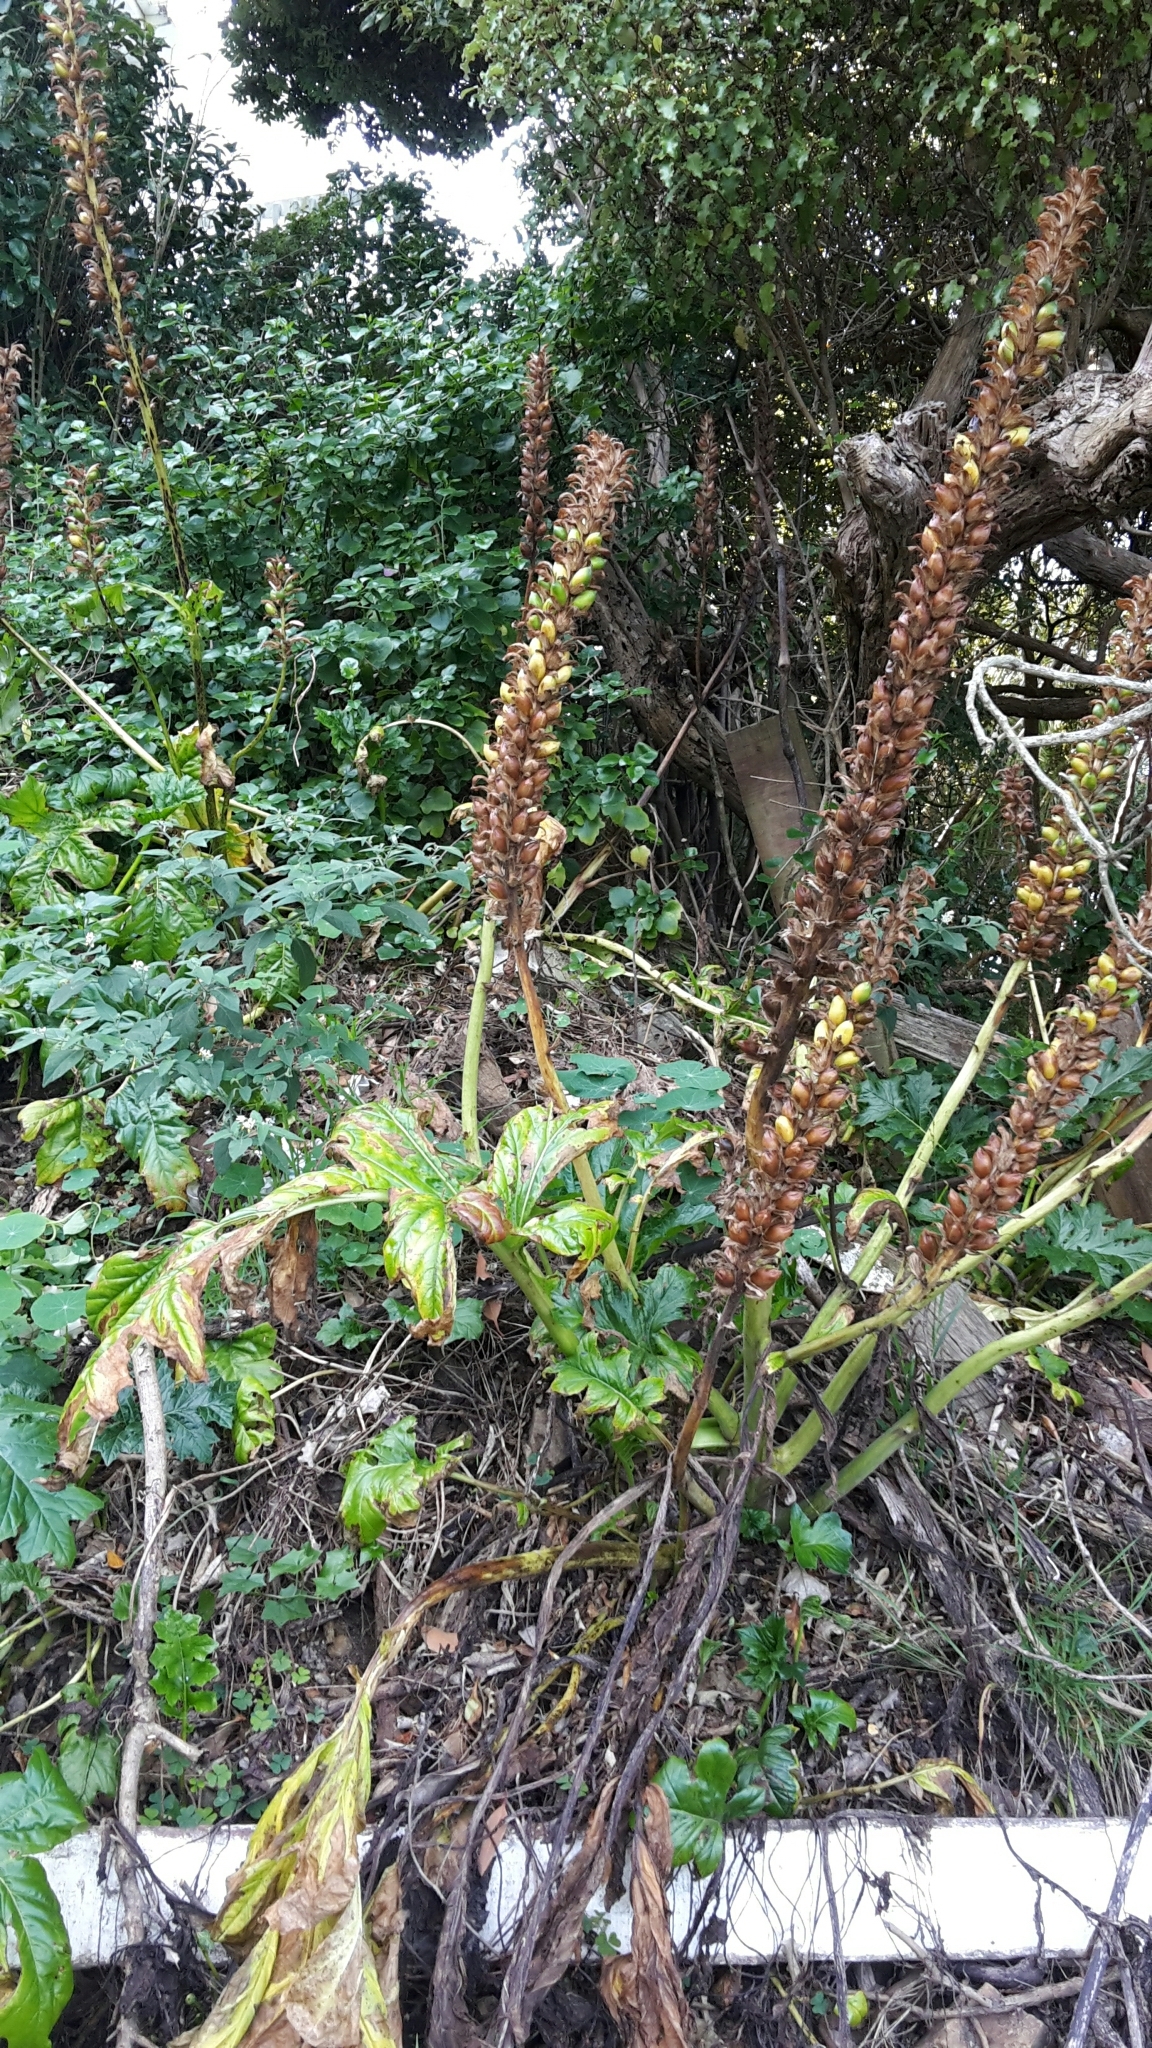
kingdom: Plantae
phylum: Tracheophyta
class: Magnoliopsida
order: Lamiales
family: Acanthaceae
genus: Acanthus
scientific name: Acanthus mollis
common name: Bear's-breech
